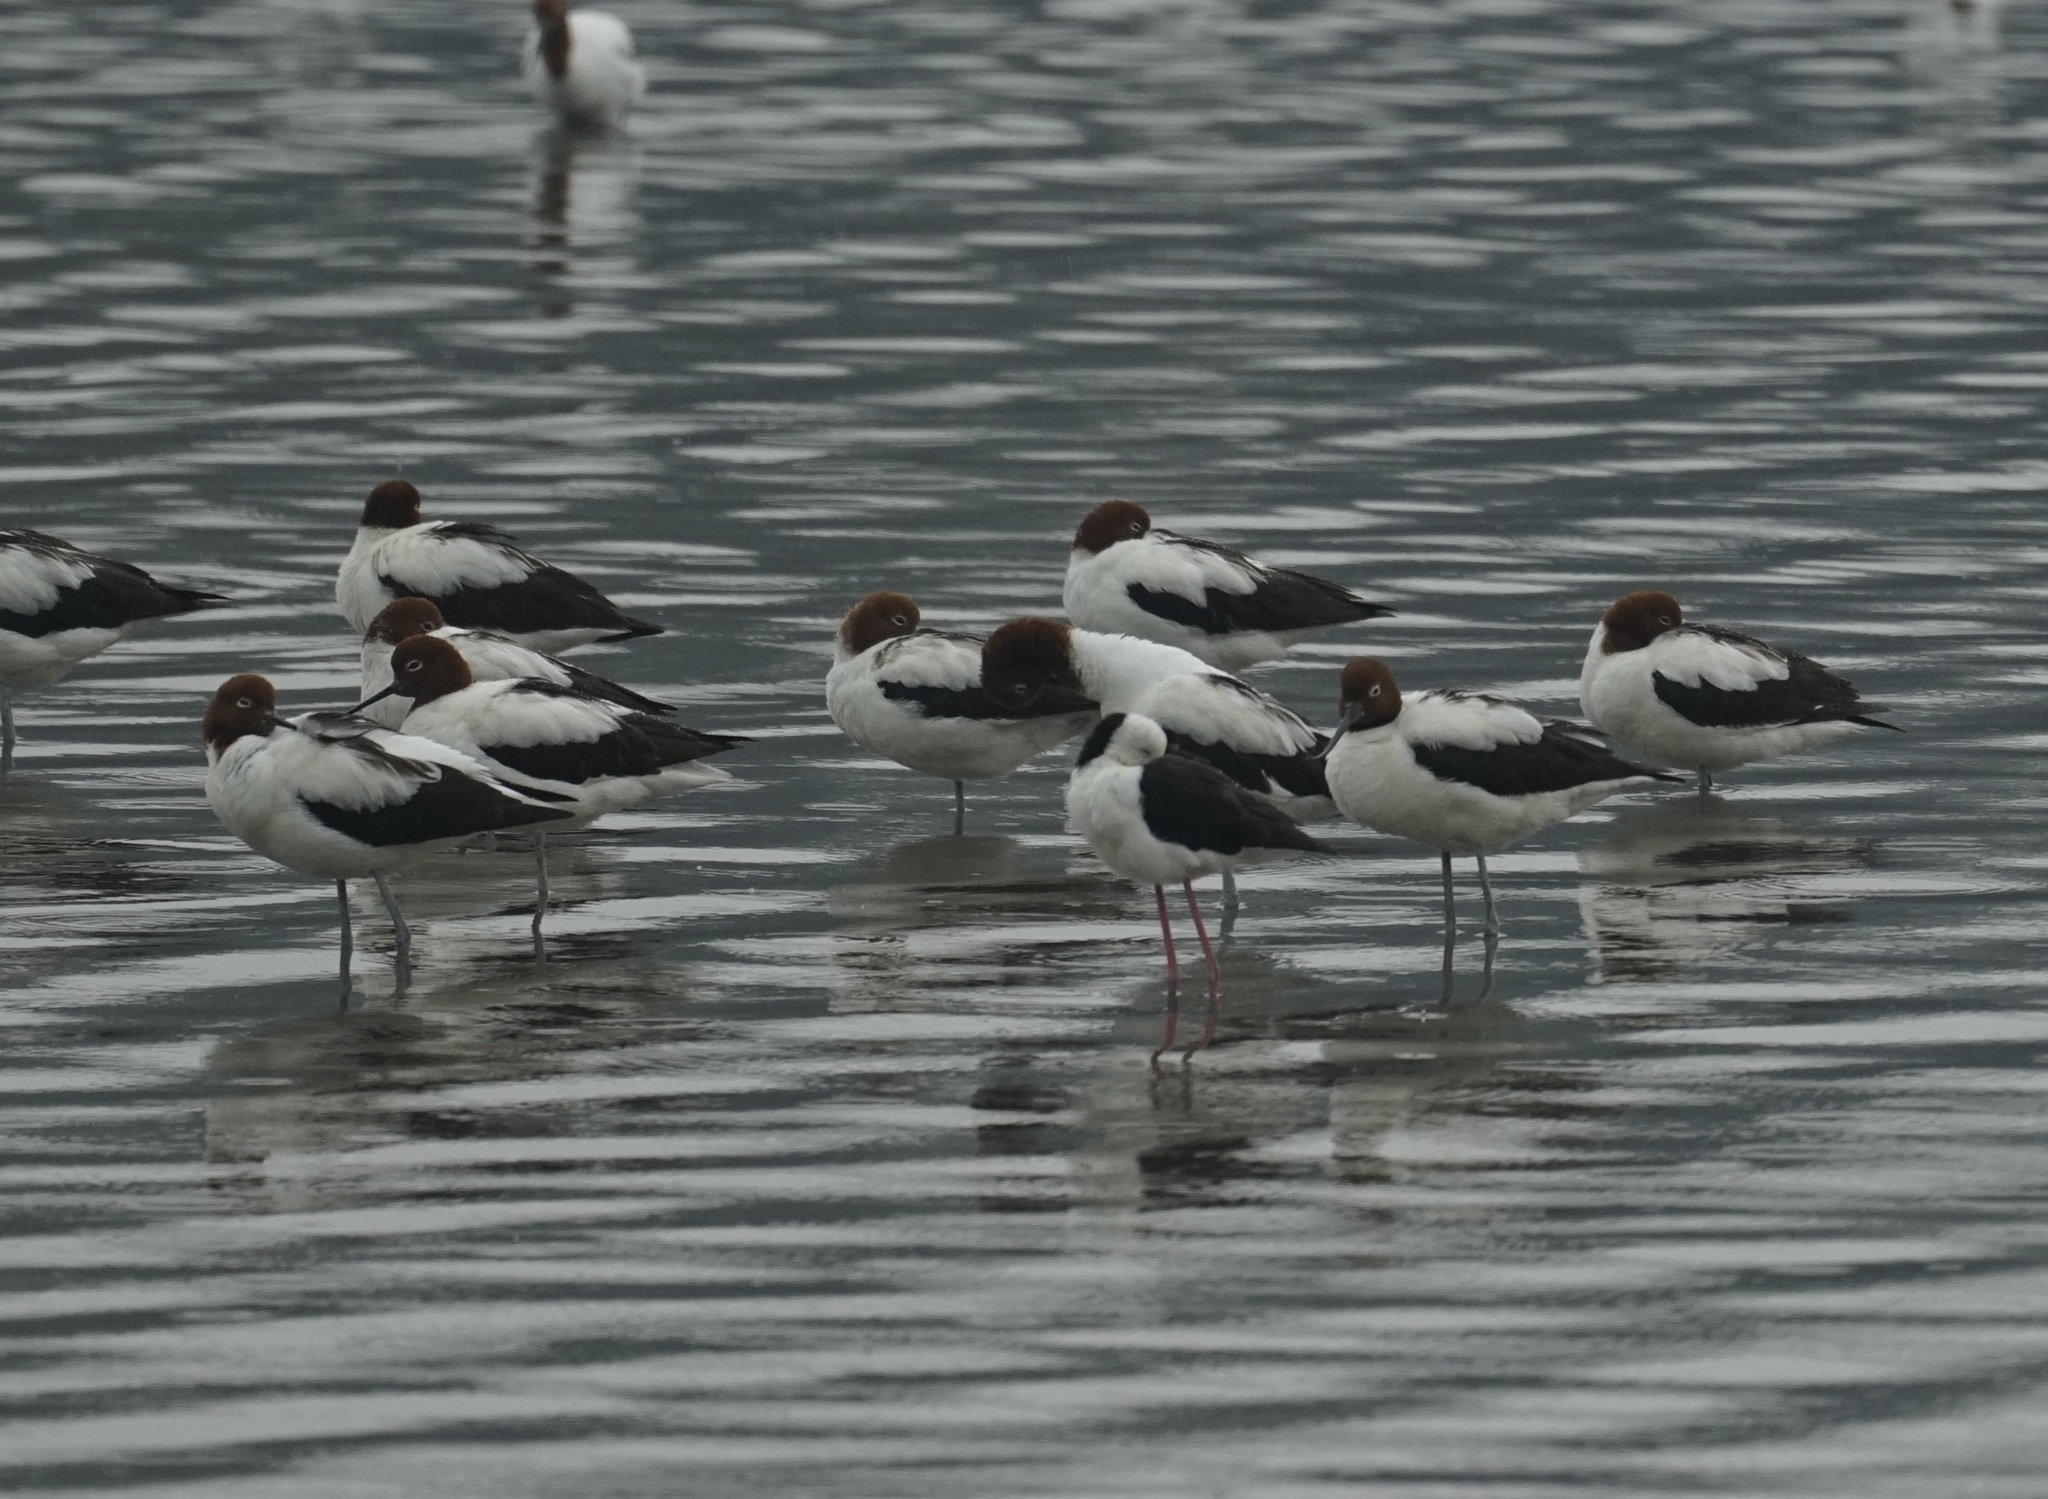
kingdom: Animalia
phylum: Chordata
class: Aves
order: Charadriiformes
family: Recurvirostridae
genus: Recurvirostra
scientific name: Recurvirostra novaehollandiae
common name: Red-necked avocet
